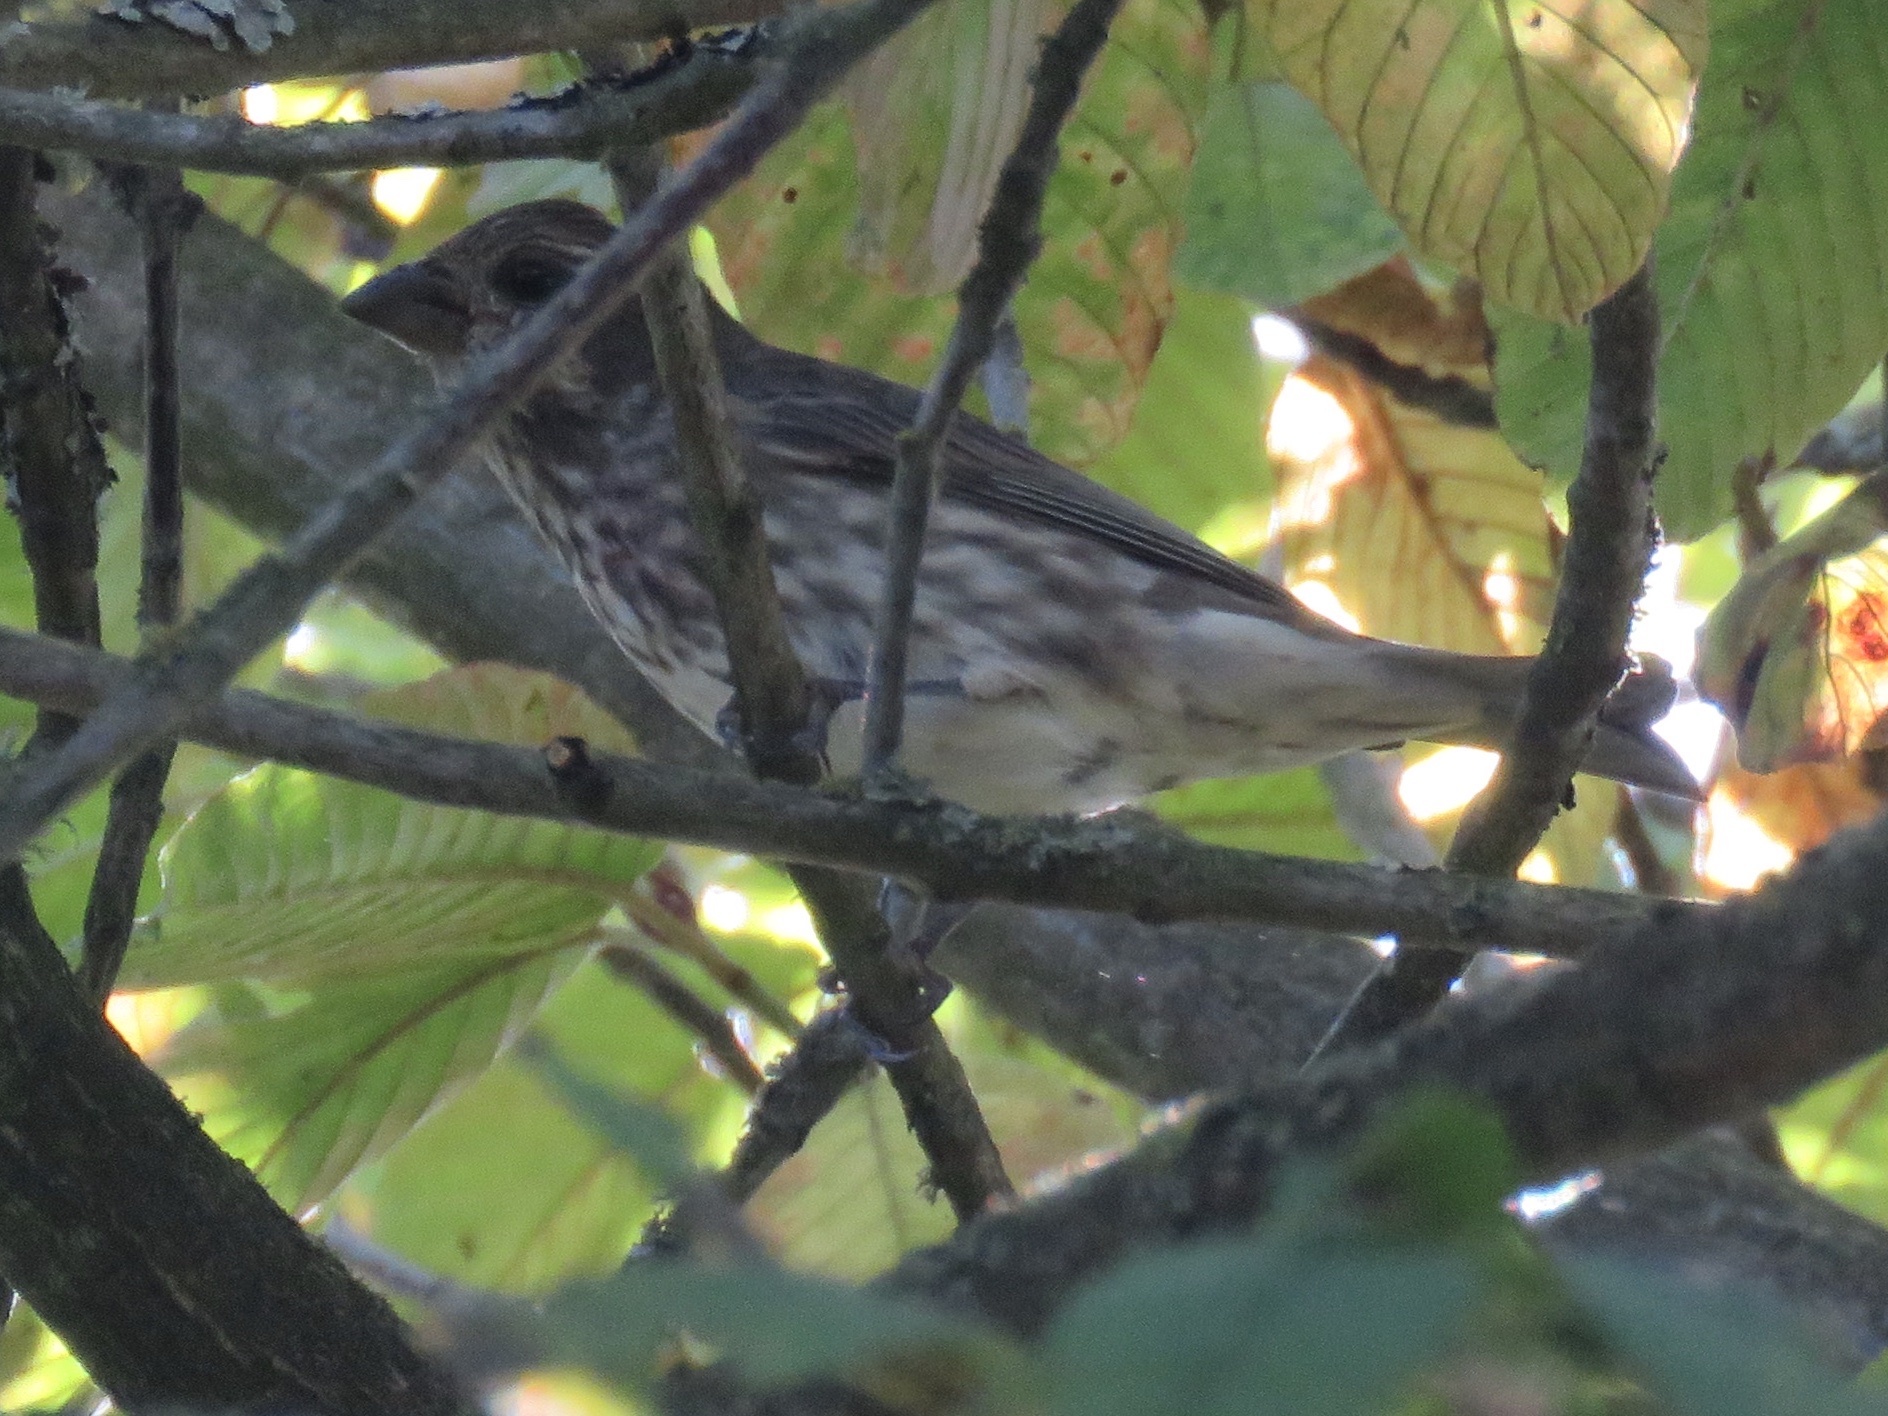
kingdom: Animalia
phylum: Chordata
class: Aves
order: Passeriformes
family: Fringillidae
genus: Haemorhous
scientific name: Haemorhous purpureus
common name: Purple finch
